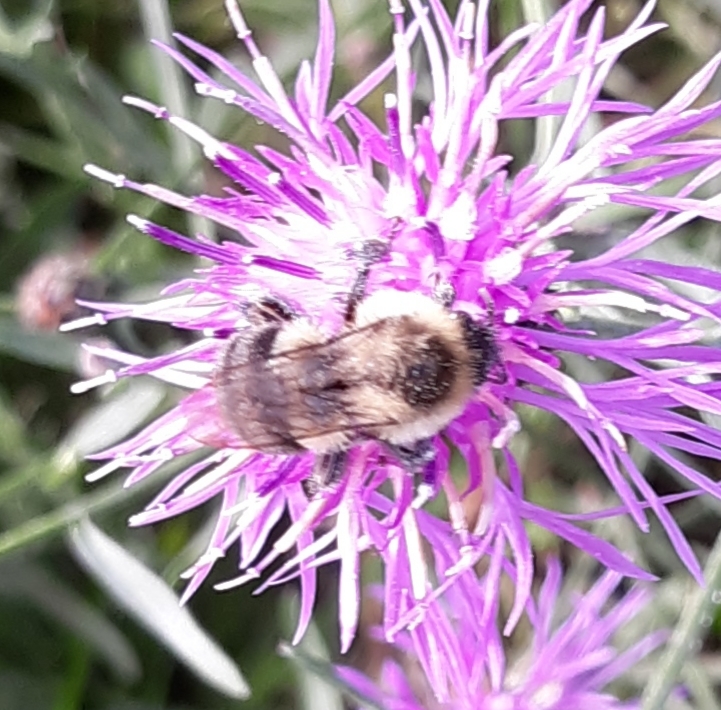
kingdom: Animalia
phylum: Arthropoda
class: Insecta
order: Hymenoptera
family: Apidae
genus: Bombus
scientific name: Bombus impatiens
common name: Common eastern bumble bee
